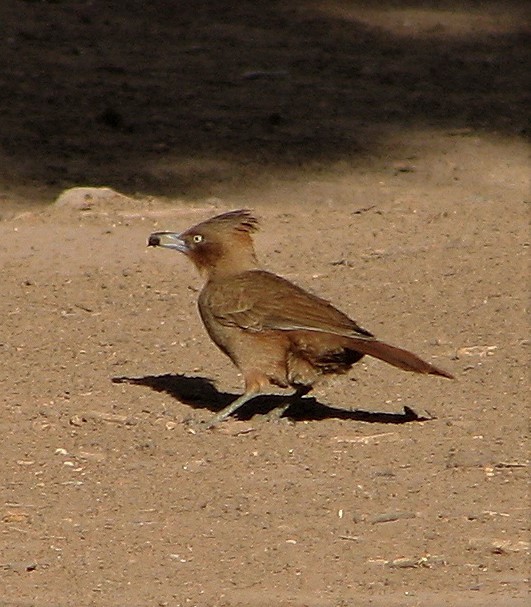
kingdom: Animalia
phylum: Chordata
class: Aves
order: Passeriformes
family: Furnariidae
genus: Pseudoseisura
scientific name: Pseudoseisura lophotes
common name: Brown cacholote
